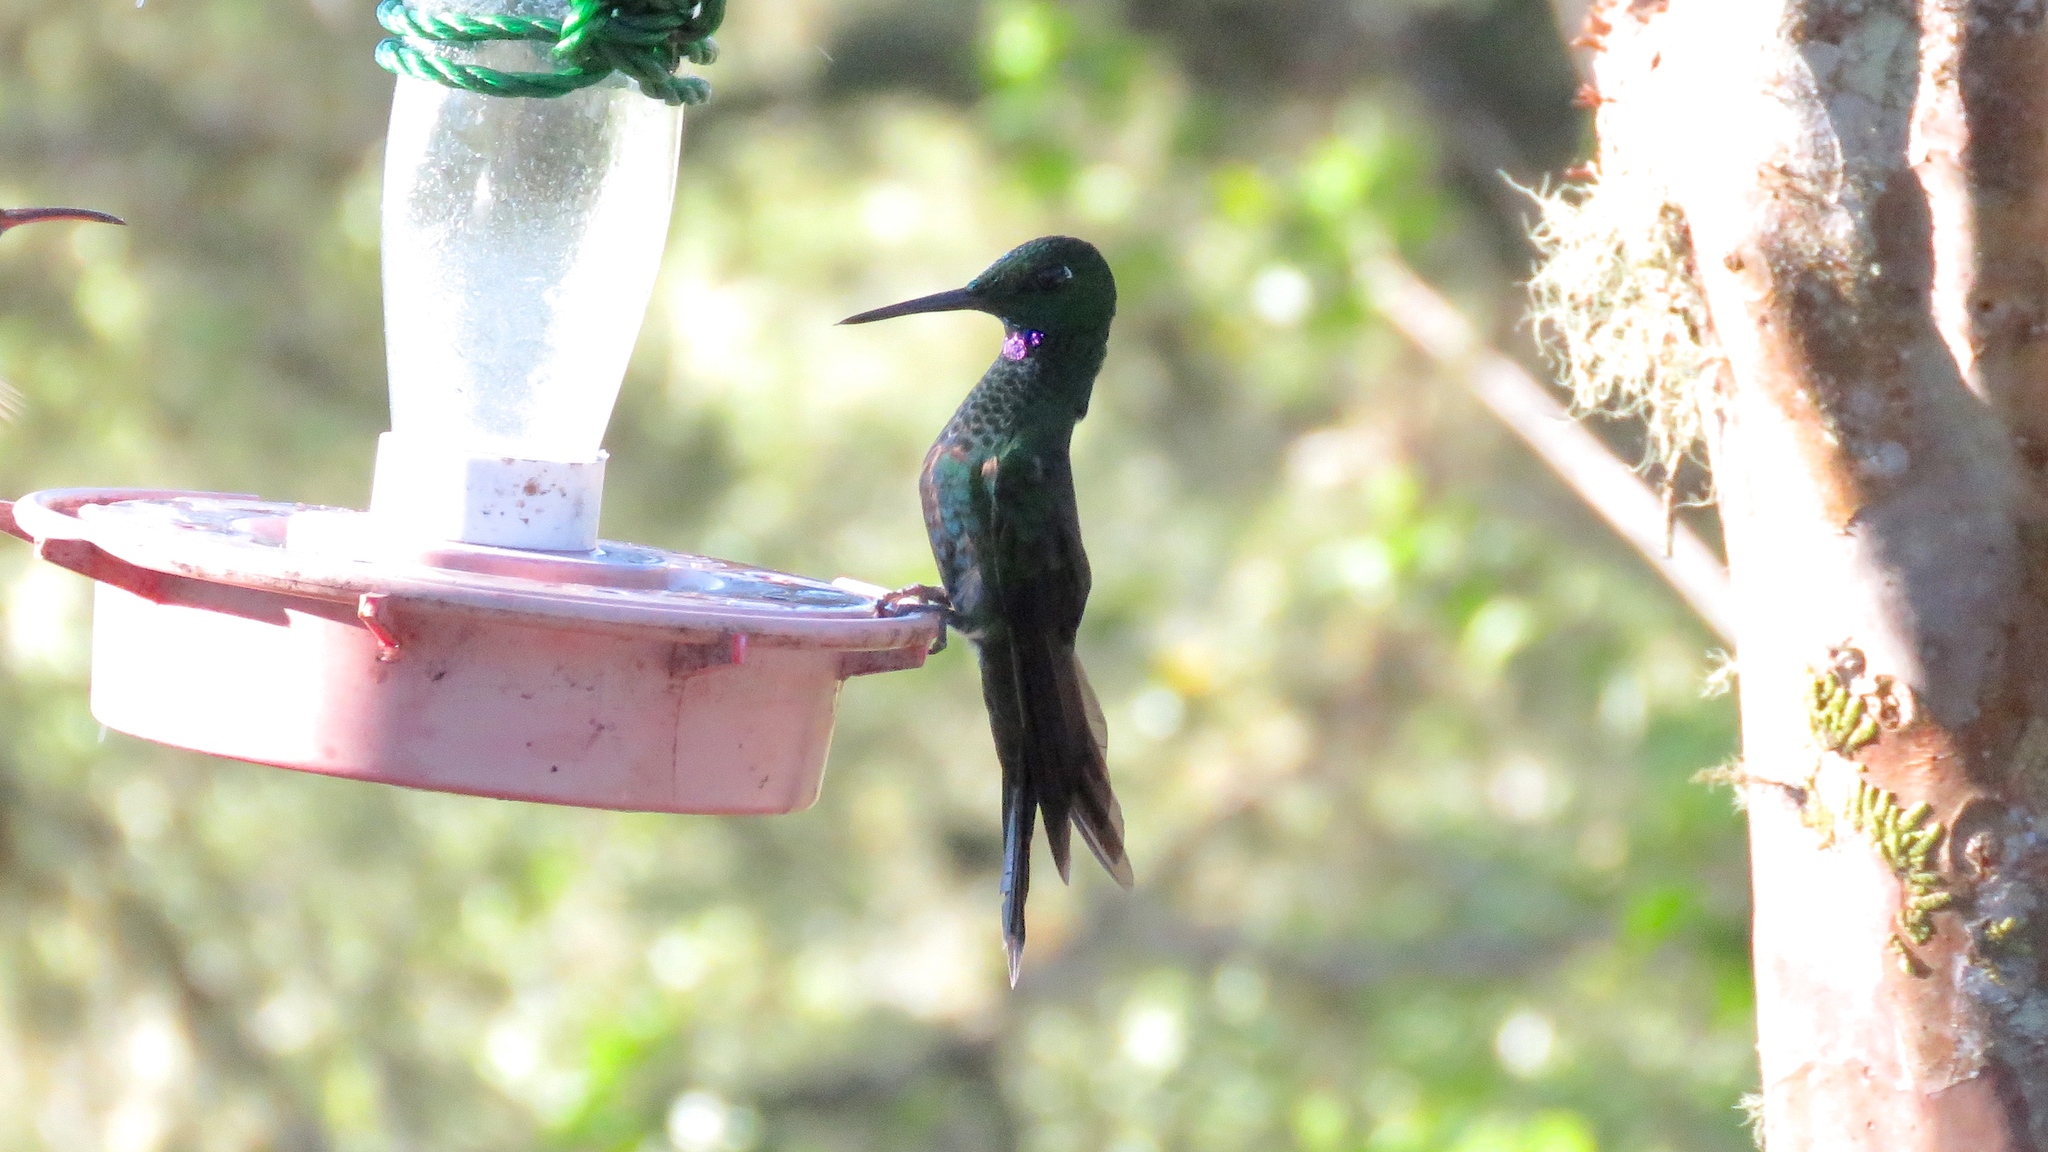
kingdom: Animalia
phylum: Chordata
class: Aves
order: Apodiformes
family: Trochilidae
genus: Heliodoxa
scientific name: Heliodoxa jacula
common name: Green-crowned brilliant
